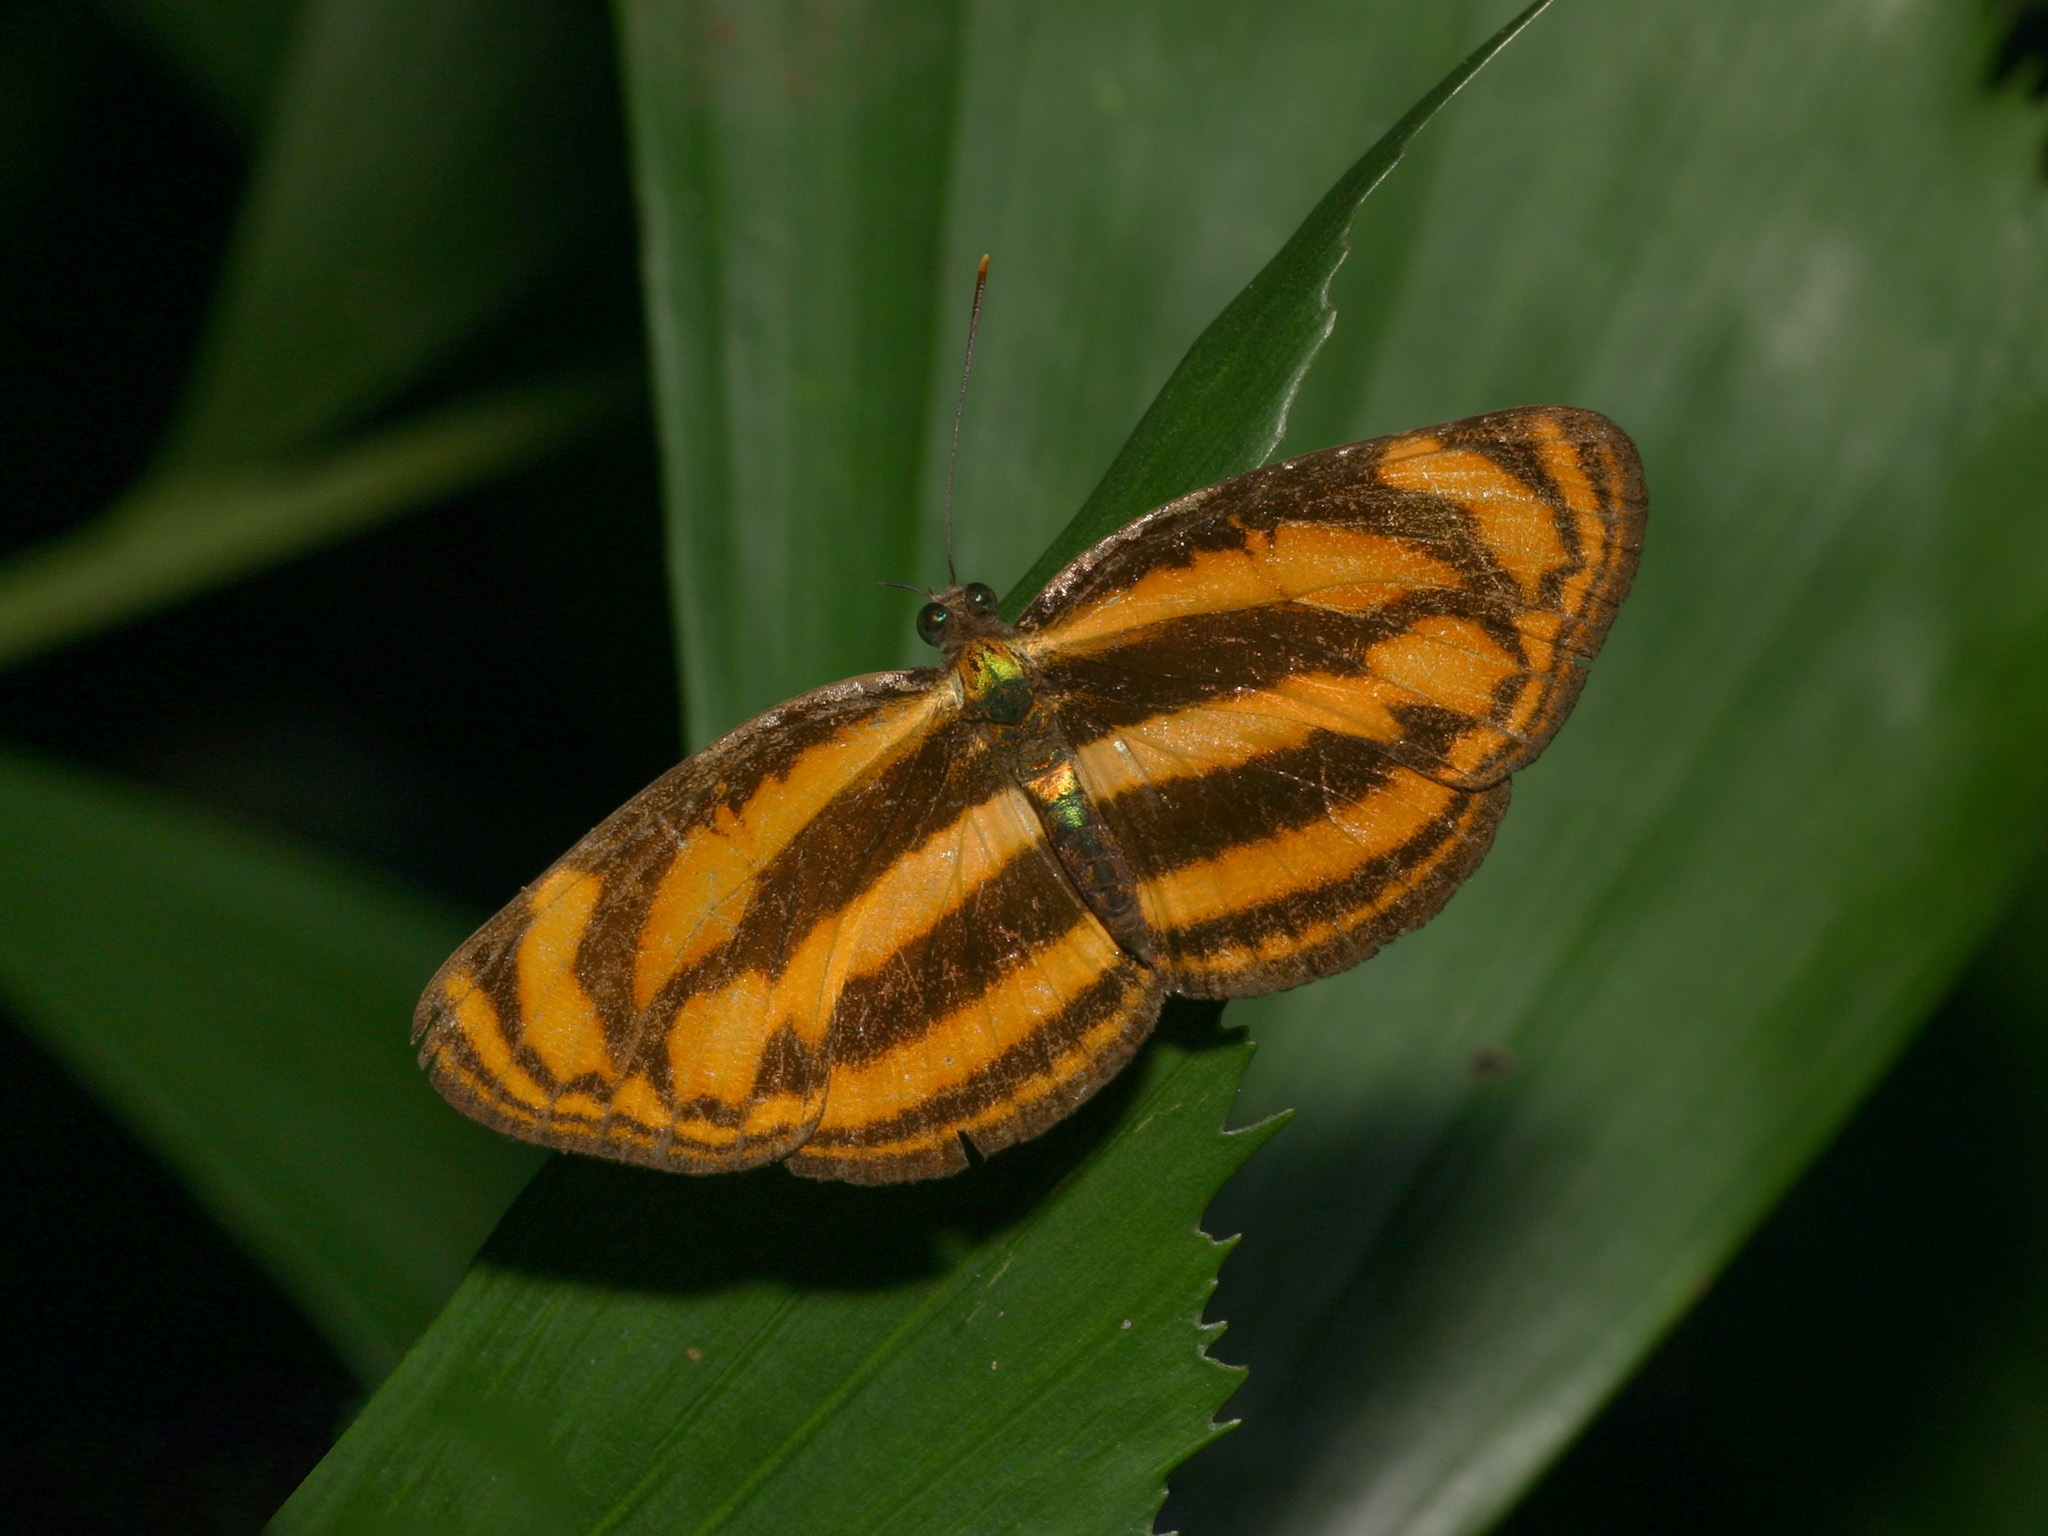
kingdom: Animalia
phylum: Arthropoda
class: Insecta
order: Lepidoptera
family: Nymphalidae
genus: Lasippa
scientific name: Lasippa tiga
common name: Malayan lascar
